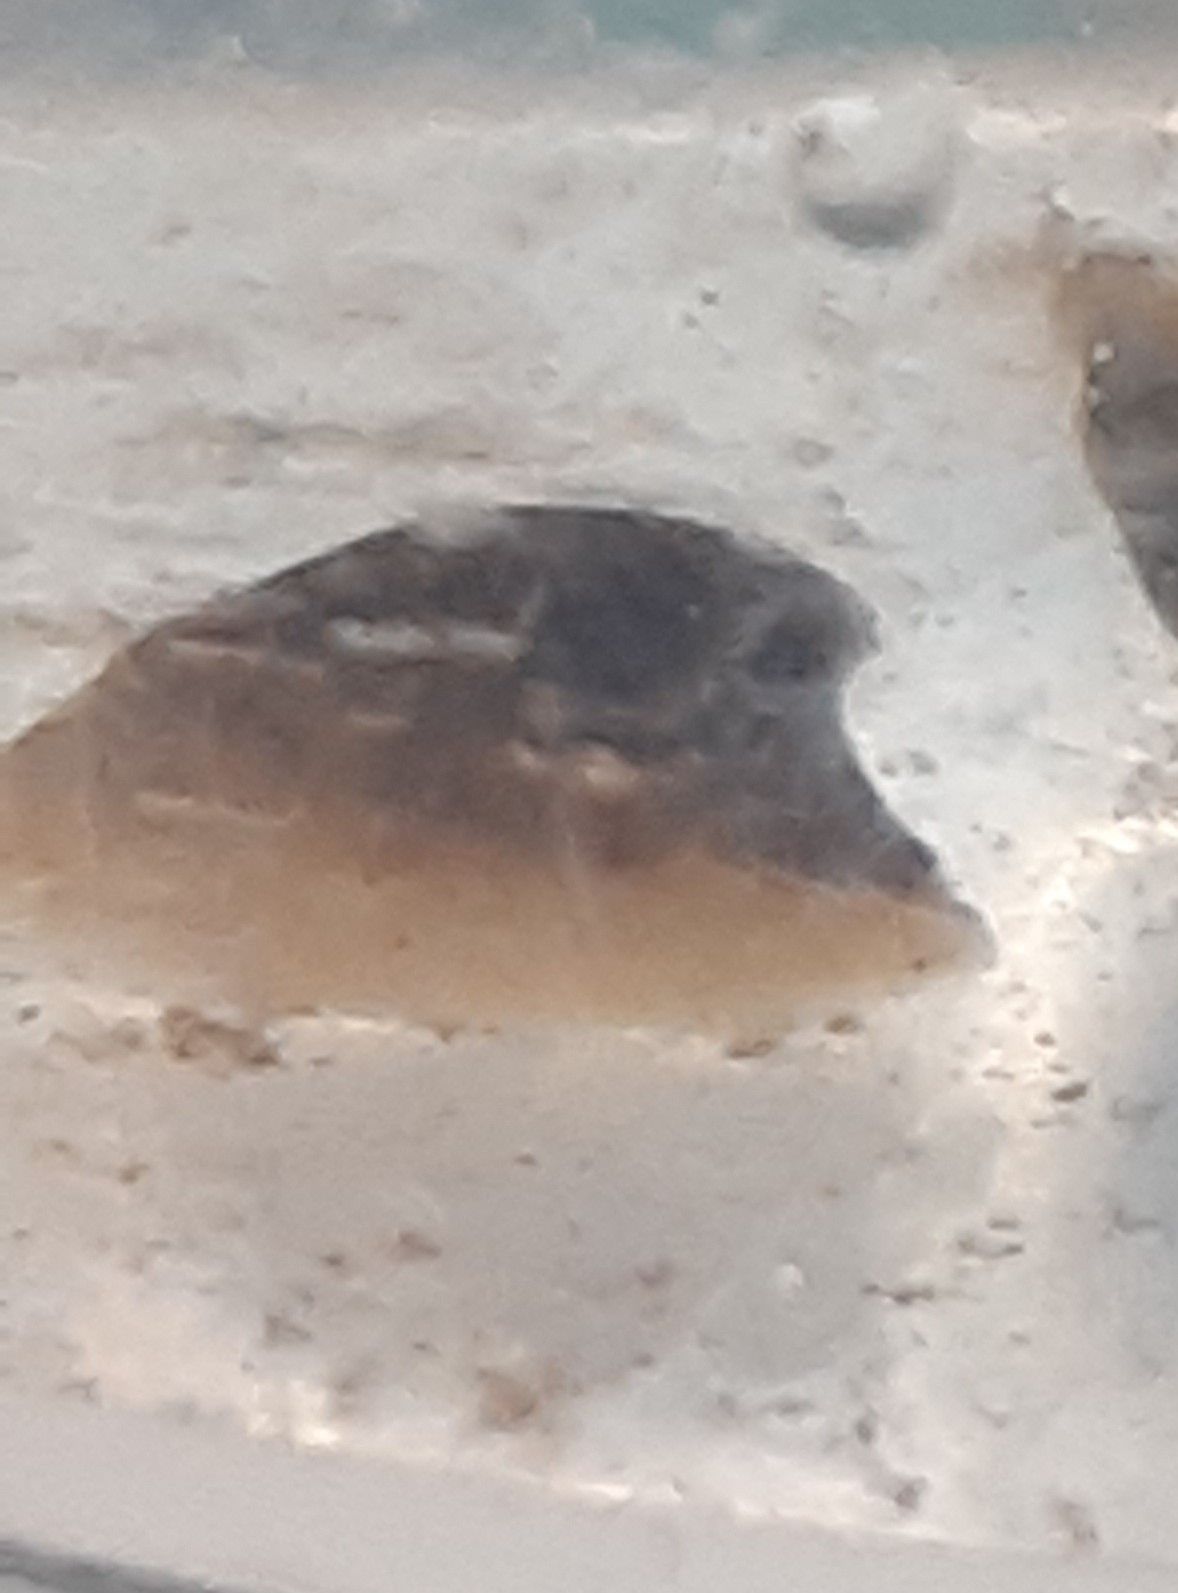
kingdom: Animalia
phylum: Mollusca
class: Gastropoda
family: Planorbidae
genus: Ancylus
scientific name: Ancylus fluviatilis
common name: River limpet
